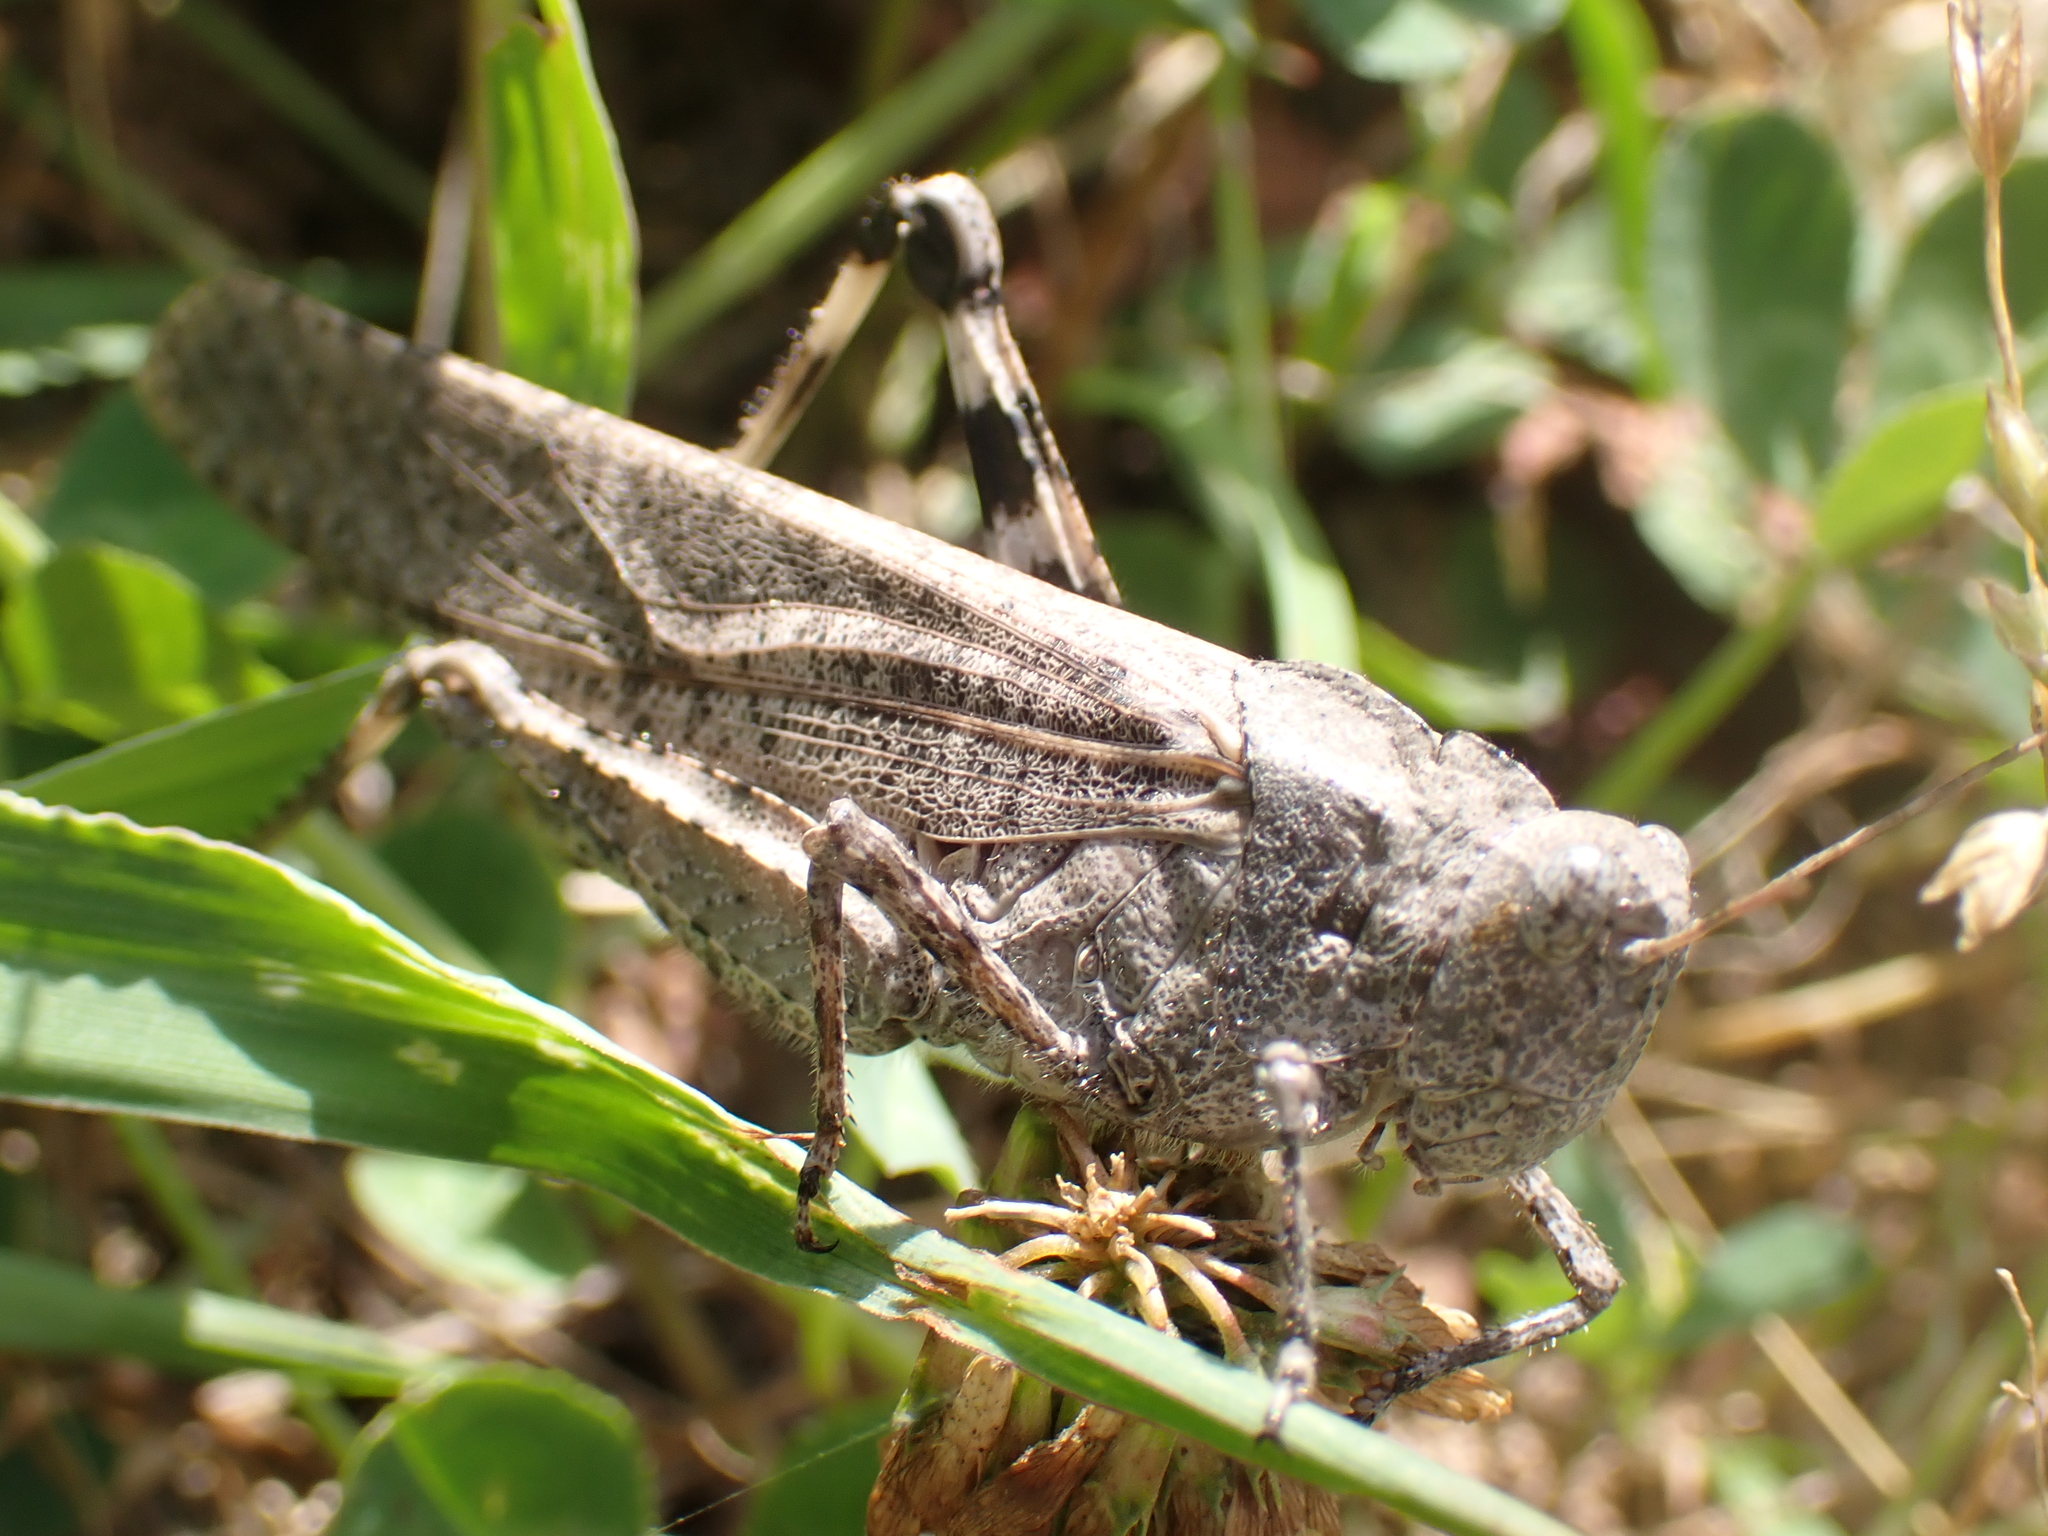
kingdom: Animalia
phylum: Arthropoda
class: Insecta
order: Orthoptera
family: Acrididae
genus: Dissosteira
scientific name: Dissosteira carolina
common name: Carolina grasshopper
